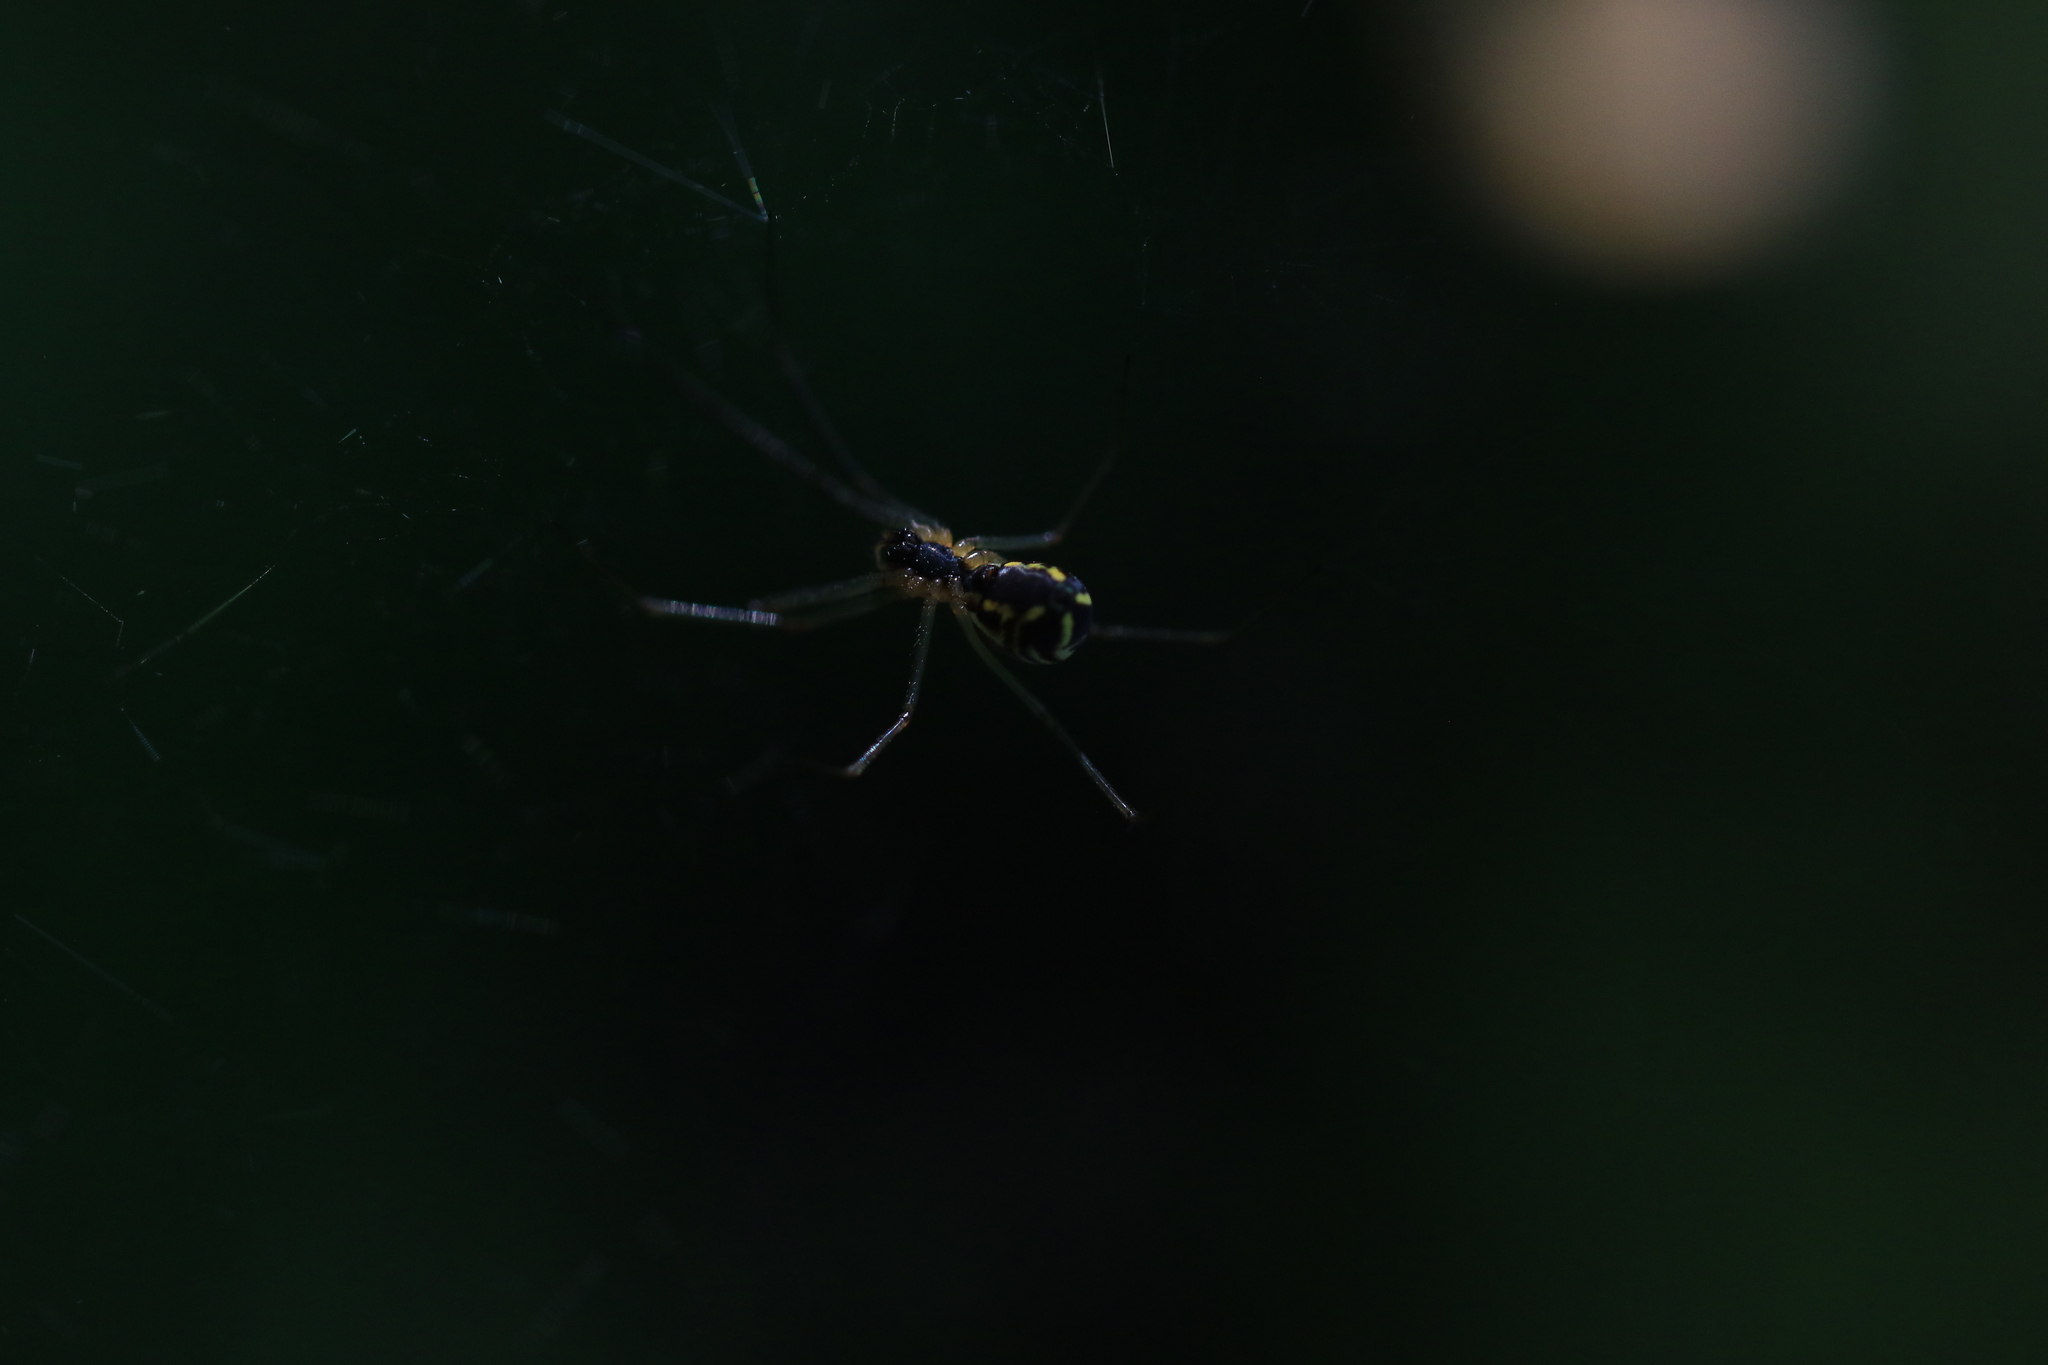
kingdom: Animalia
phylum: Arthropoda
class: Arachnida
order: Araneae
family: Linyphiidae
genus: Neriene
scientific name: Neriene radiata
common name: Filmy dome spider
